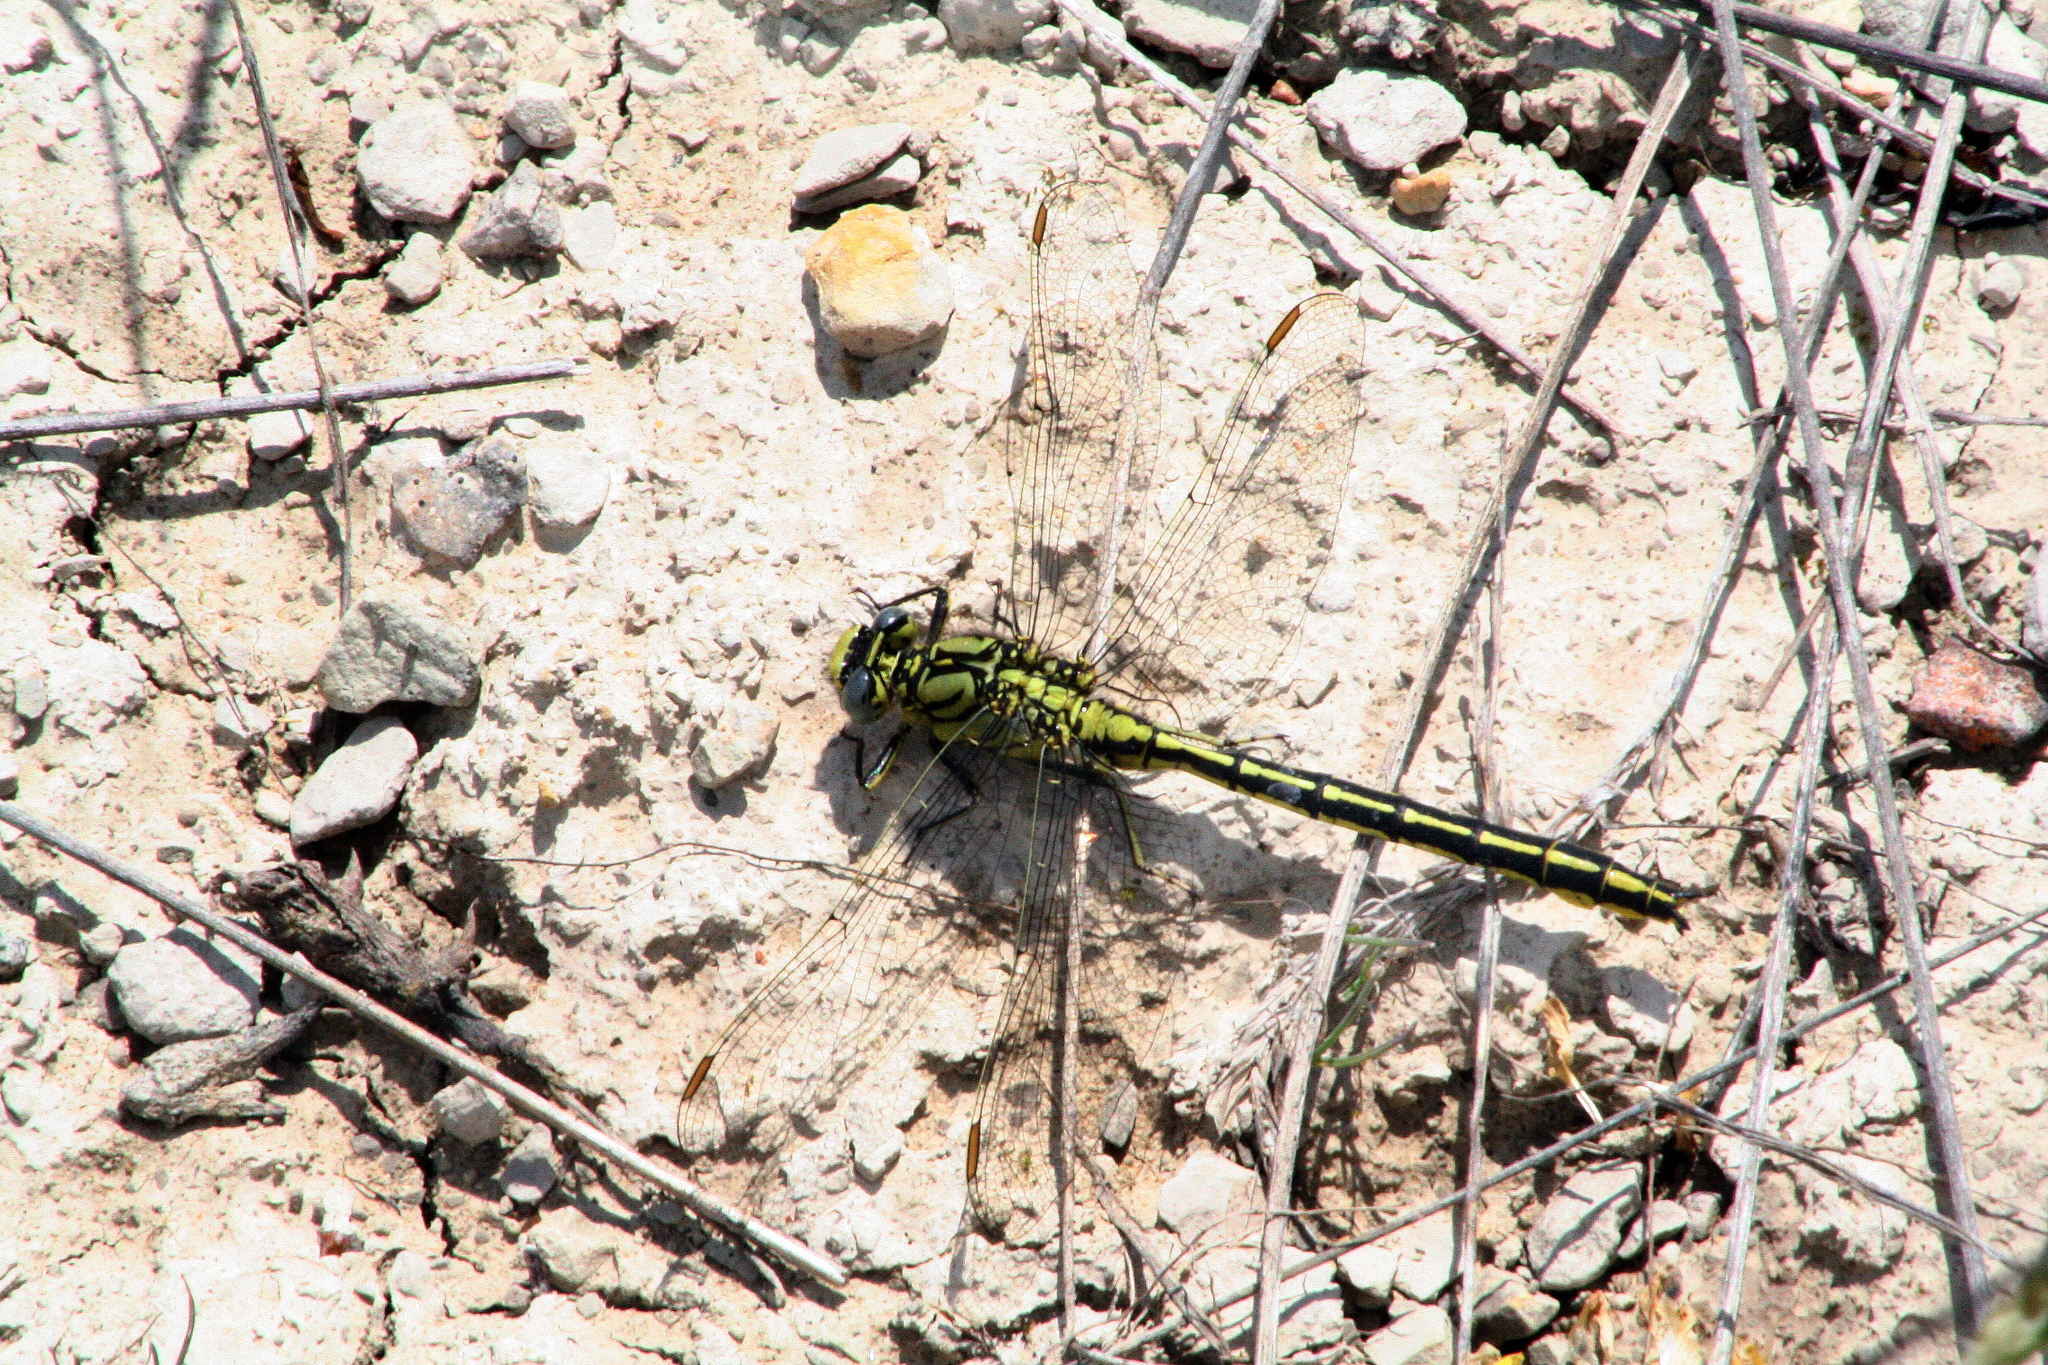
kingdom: Animalia
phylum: Arthropoda
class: Insecta
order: Odonata
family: Gomphidae
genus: Gomphus
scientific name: Gomphus pulchellus
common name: Western clubtail
